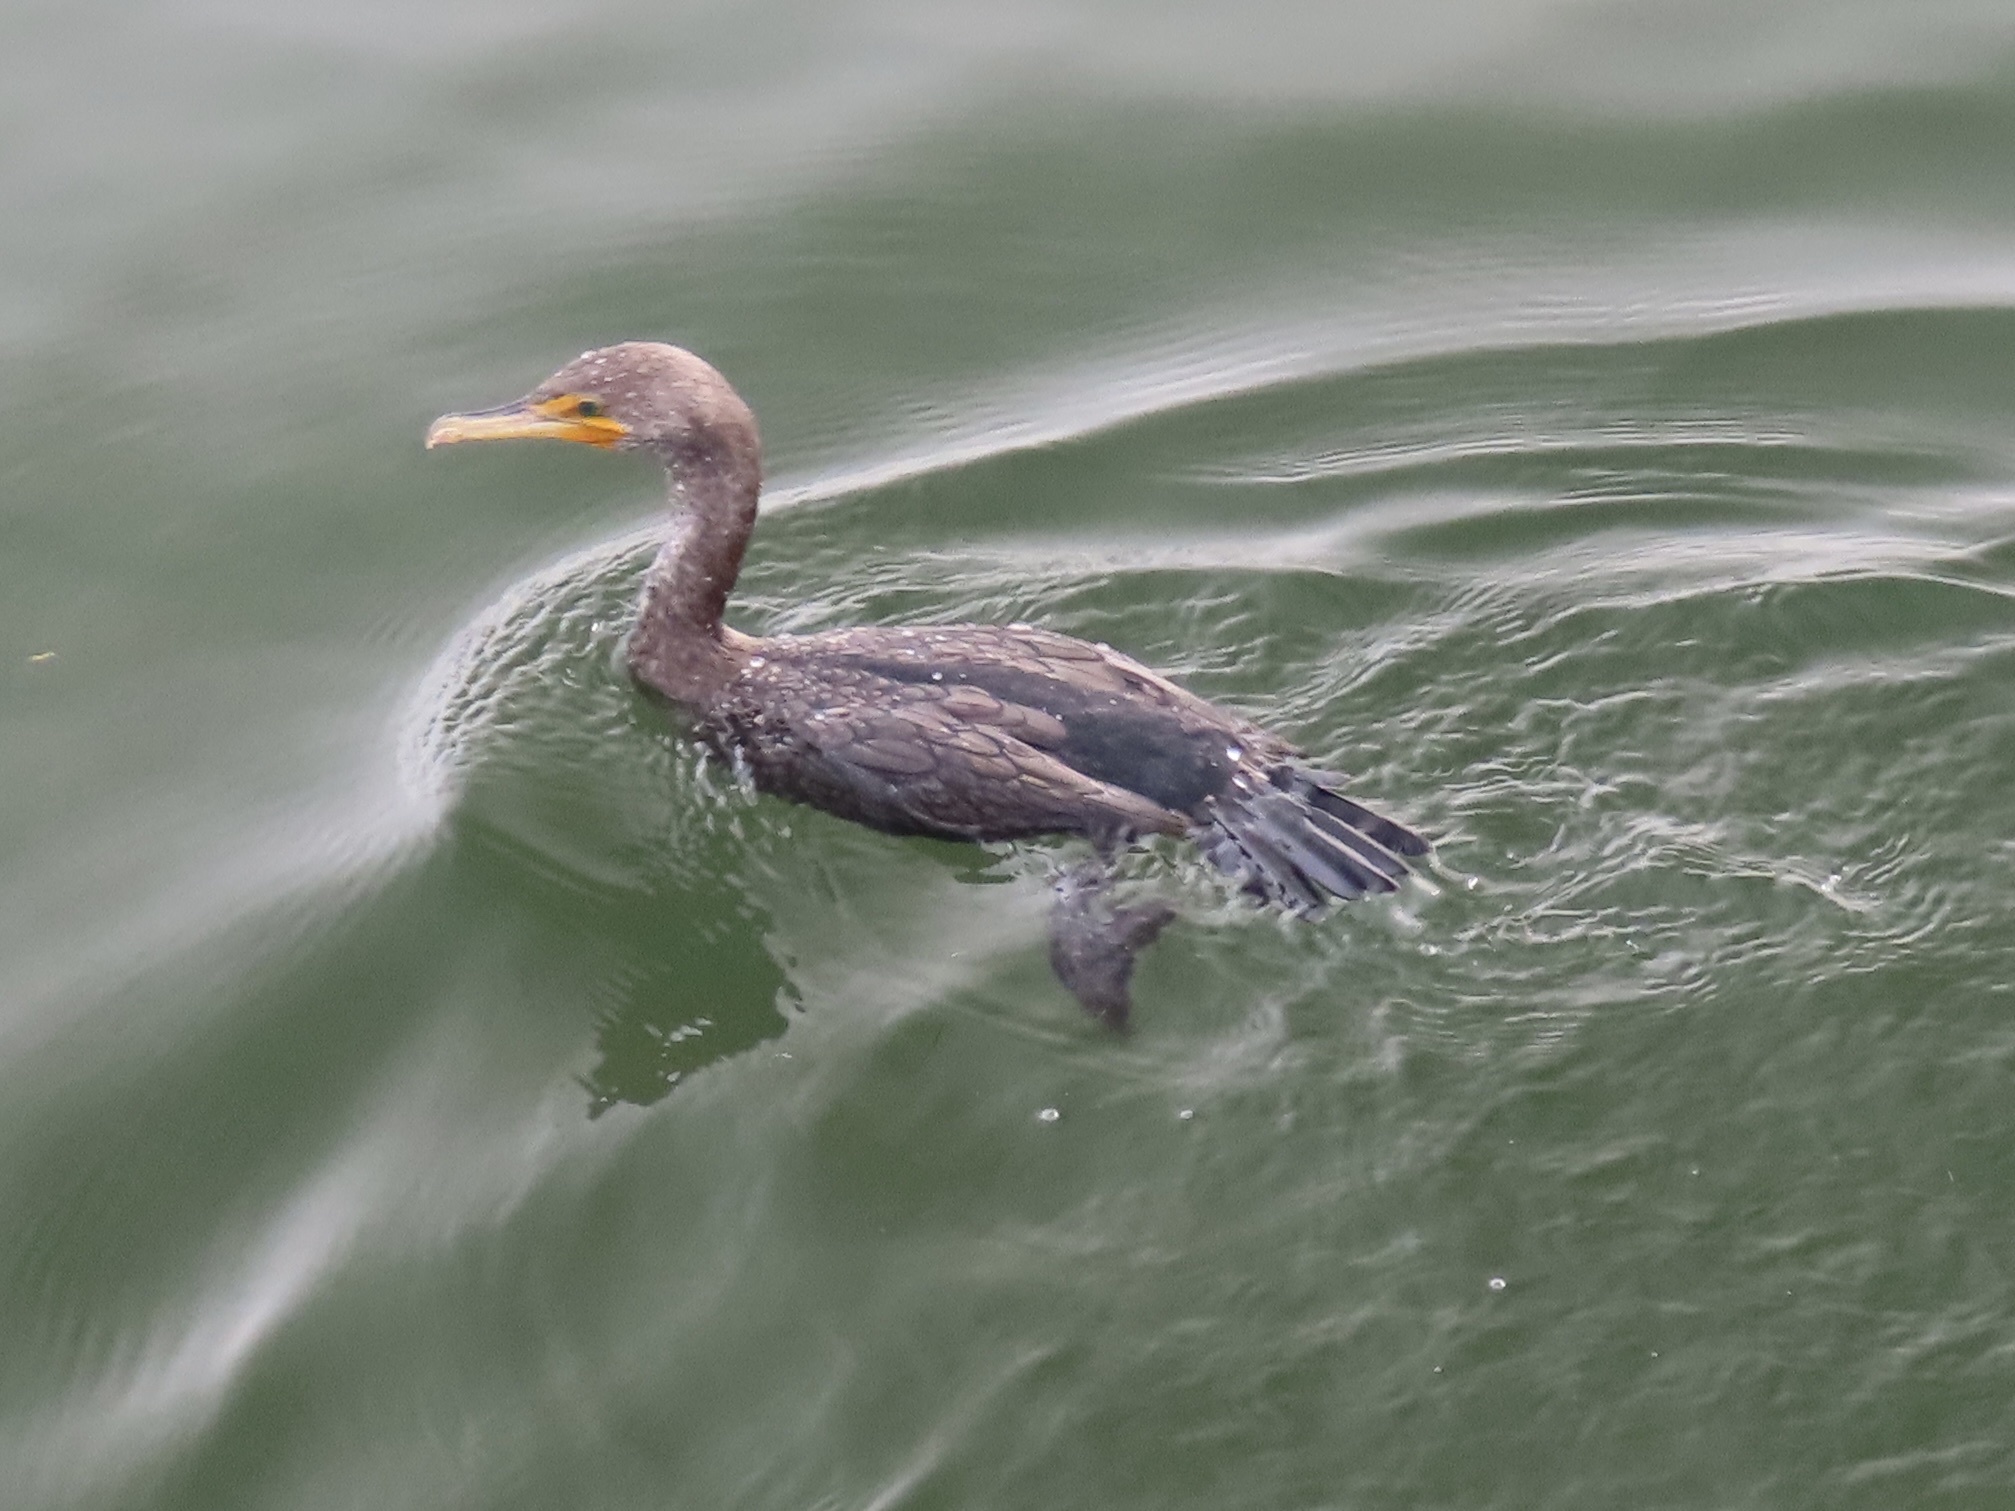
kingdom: Animalia
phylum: Chordata
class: Aves
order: Suliformes
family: Phalacrocoracidae
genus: Phalacrocorax
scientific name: Phalacrocorax auritus
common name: Double-crested cormorant
